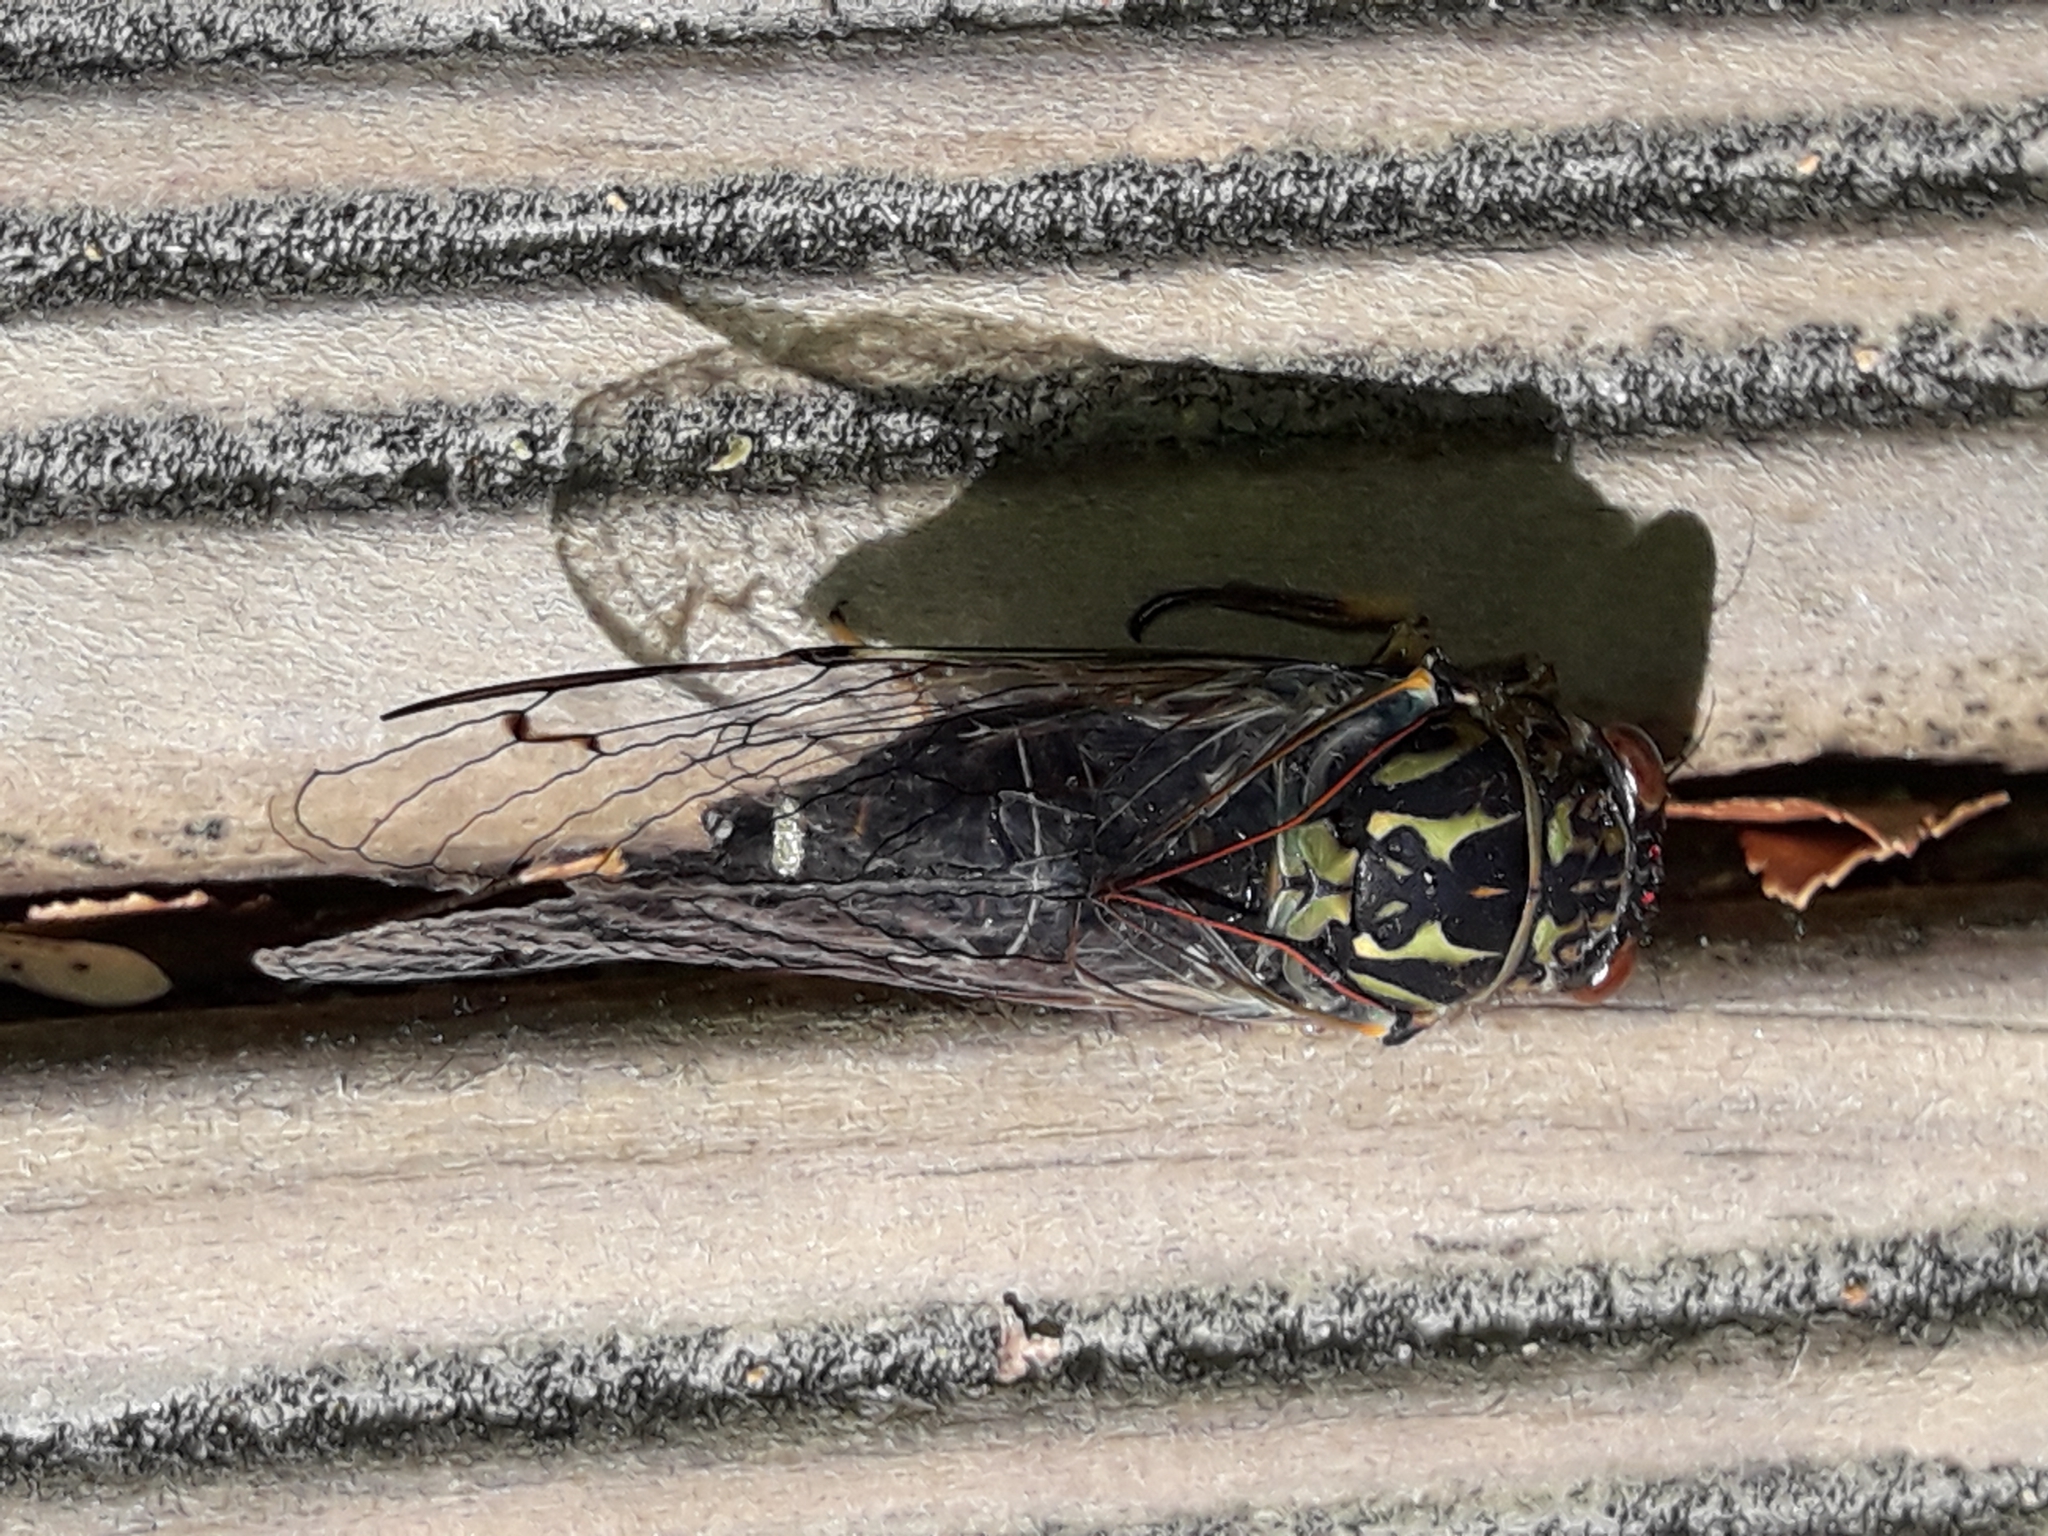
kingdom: Animalia
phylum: Arthropoda
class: Insecta
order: Hemiptera
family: Cicadidae
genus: Amphipsalta
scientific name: Amphipsalta zelandica
